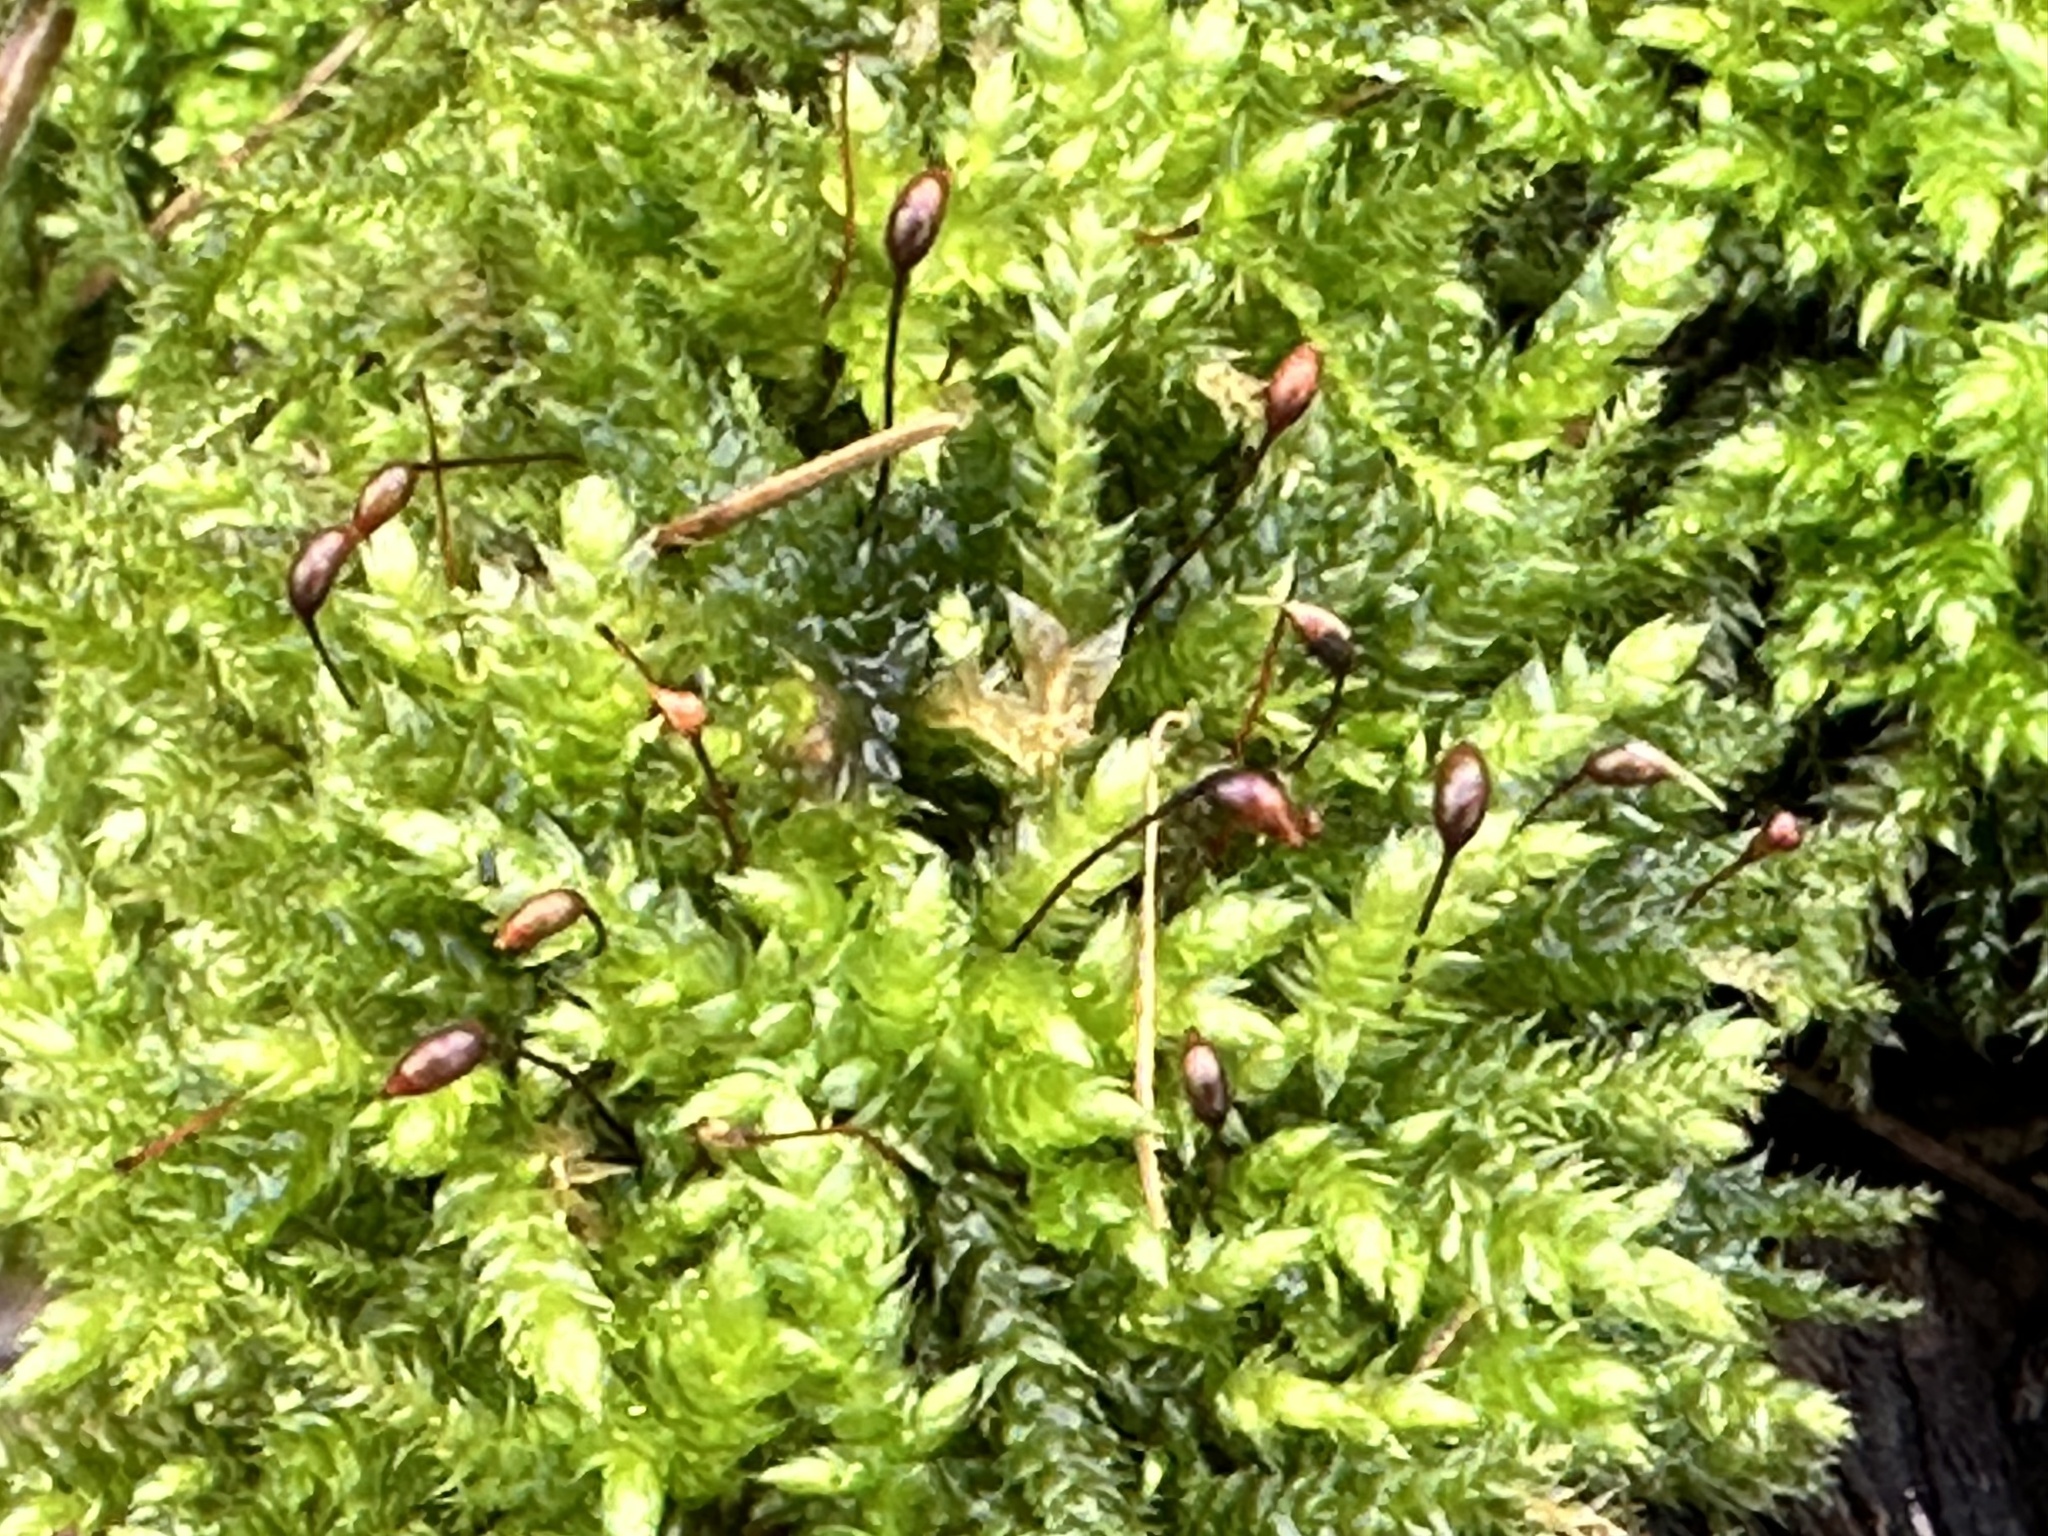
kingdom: Plantae
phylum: Bryophyta
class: Bryopsida
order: Hypnales
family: Brachytheciaceae
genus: Brachythecium
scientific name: Brachythecium rutabulum
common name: Rough-stalked feather-moss
